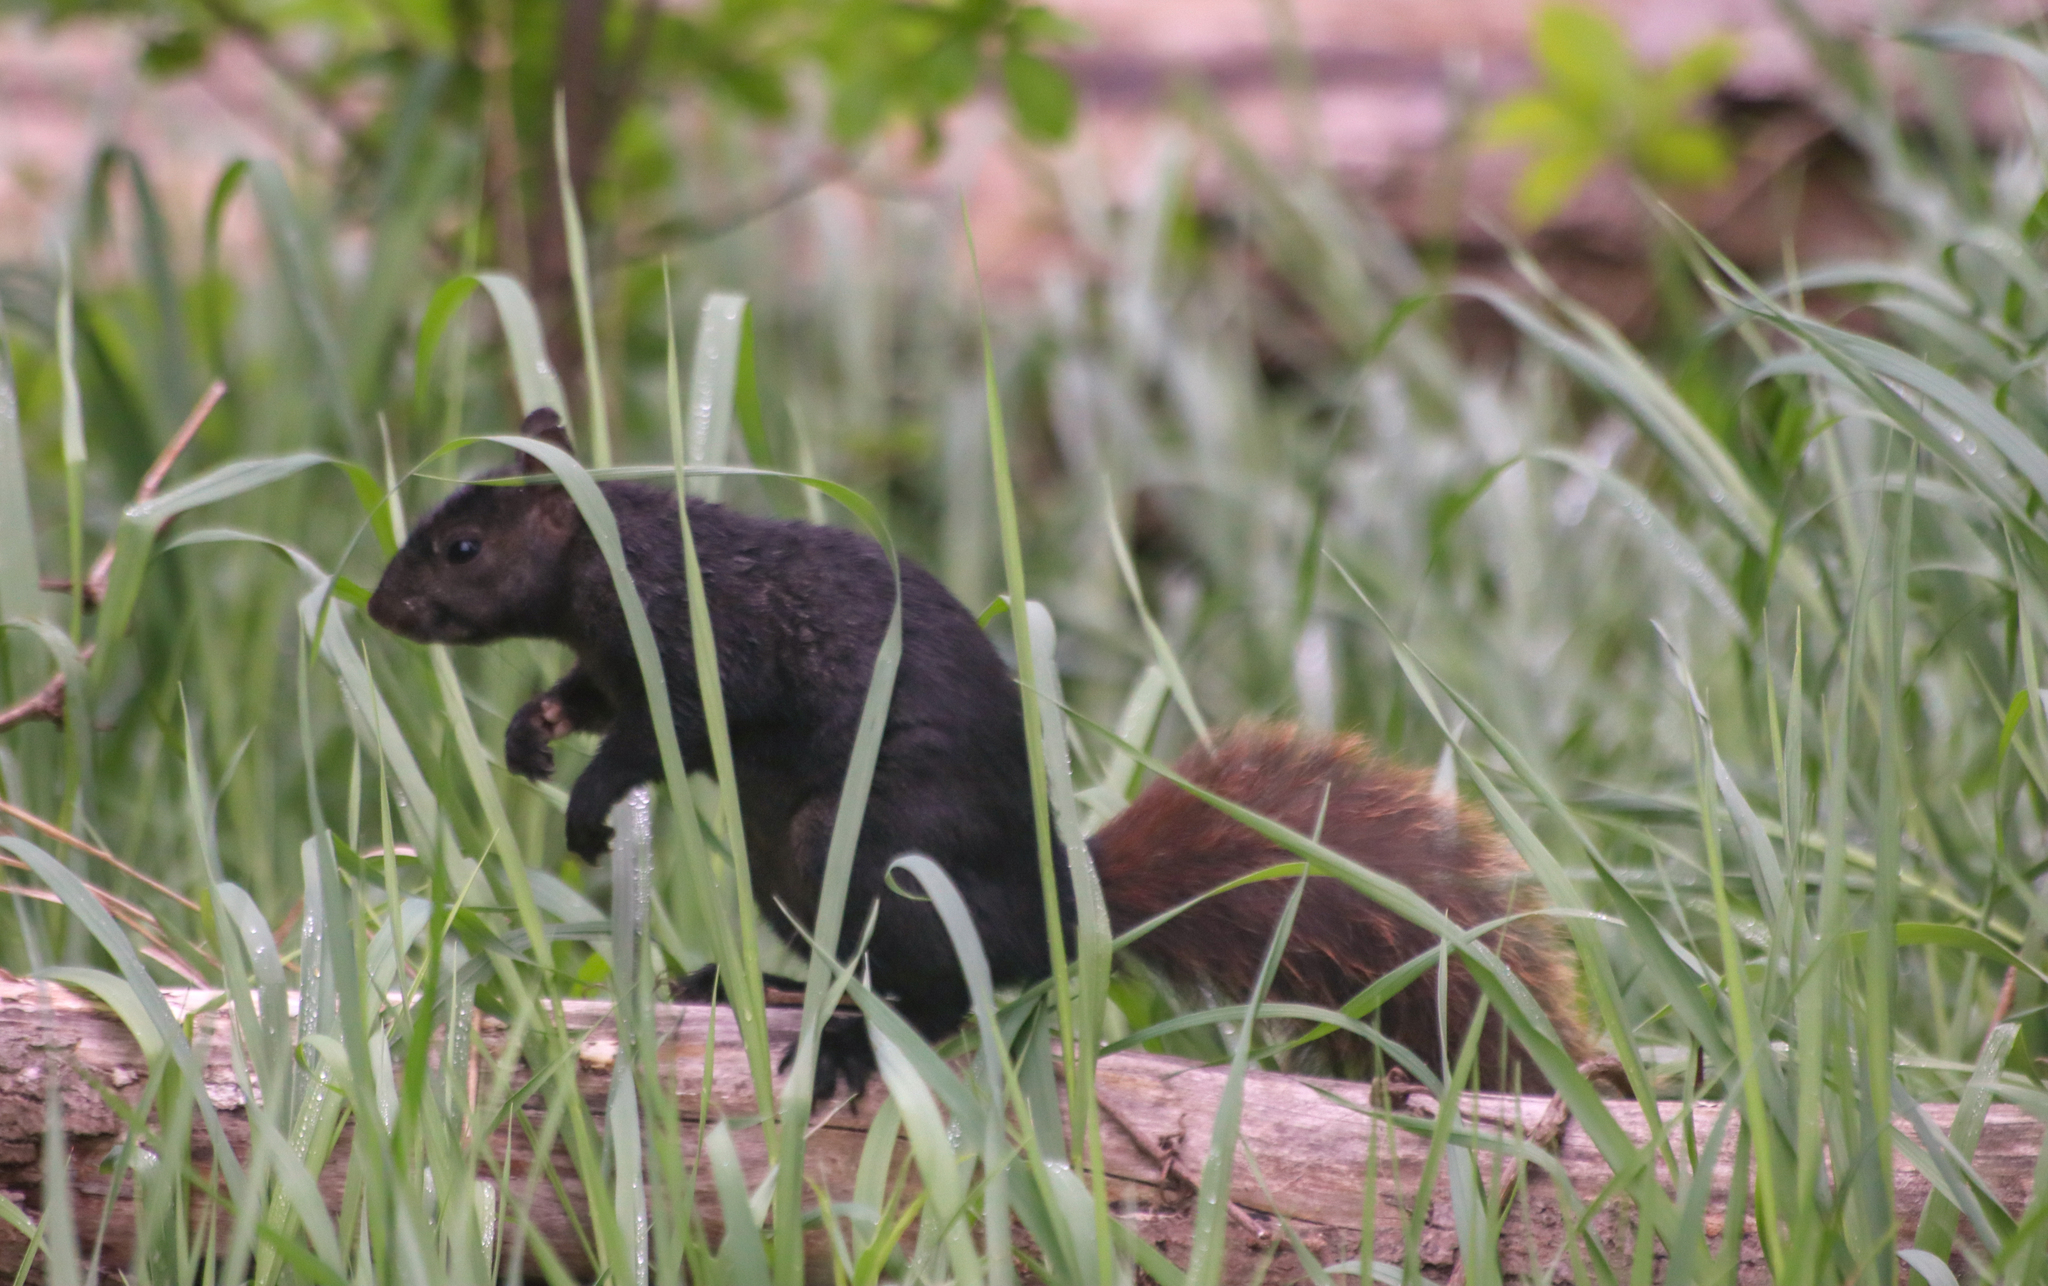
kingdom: Animalia
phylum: Chordata
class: Mammalia
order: Rodentia
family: Sciuridae
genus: Sciurus
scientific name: Sciurus carolinensis
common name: Eastern gray squirrel
